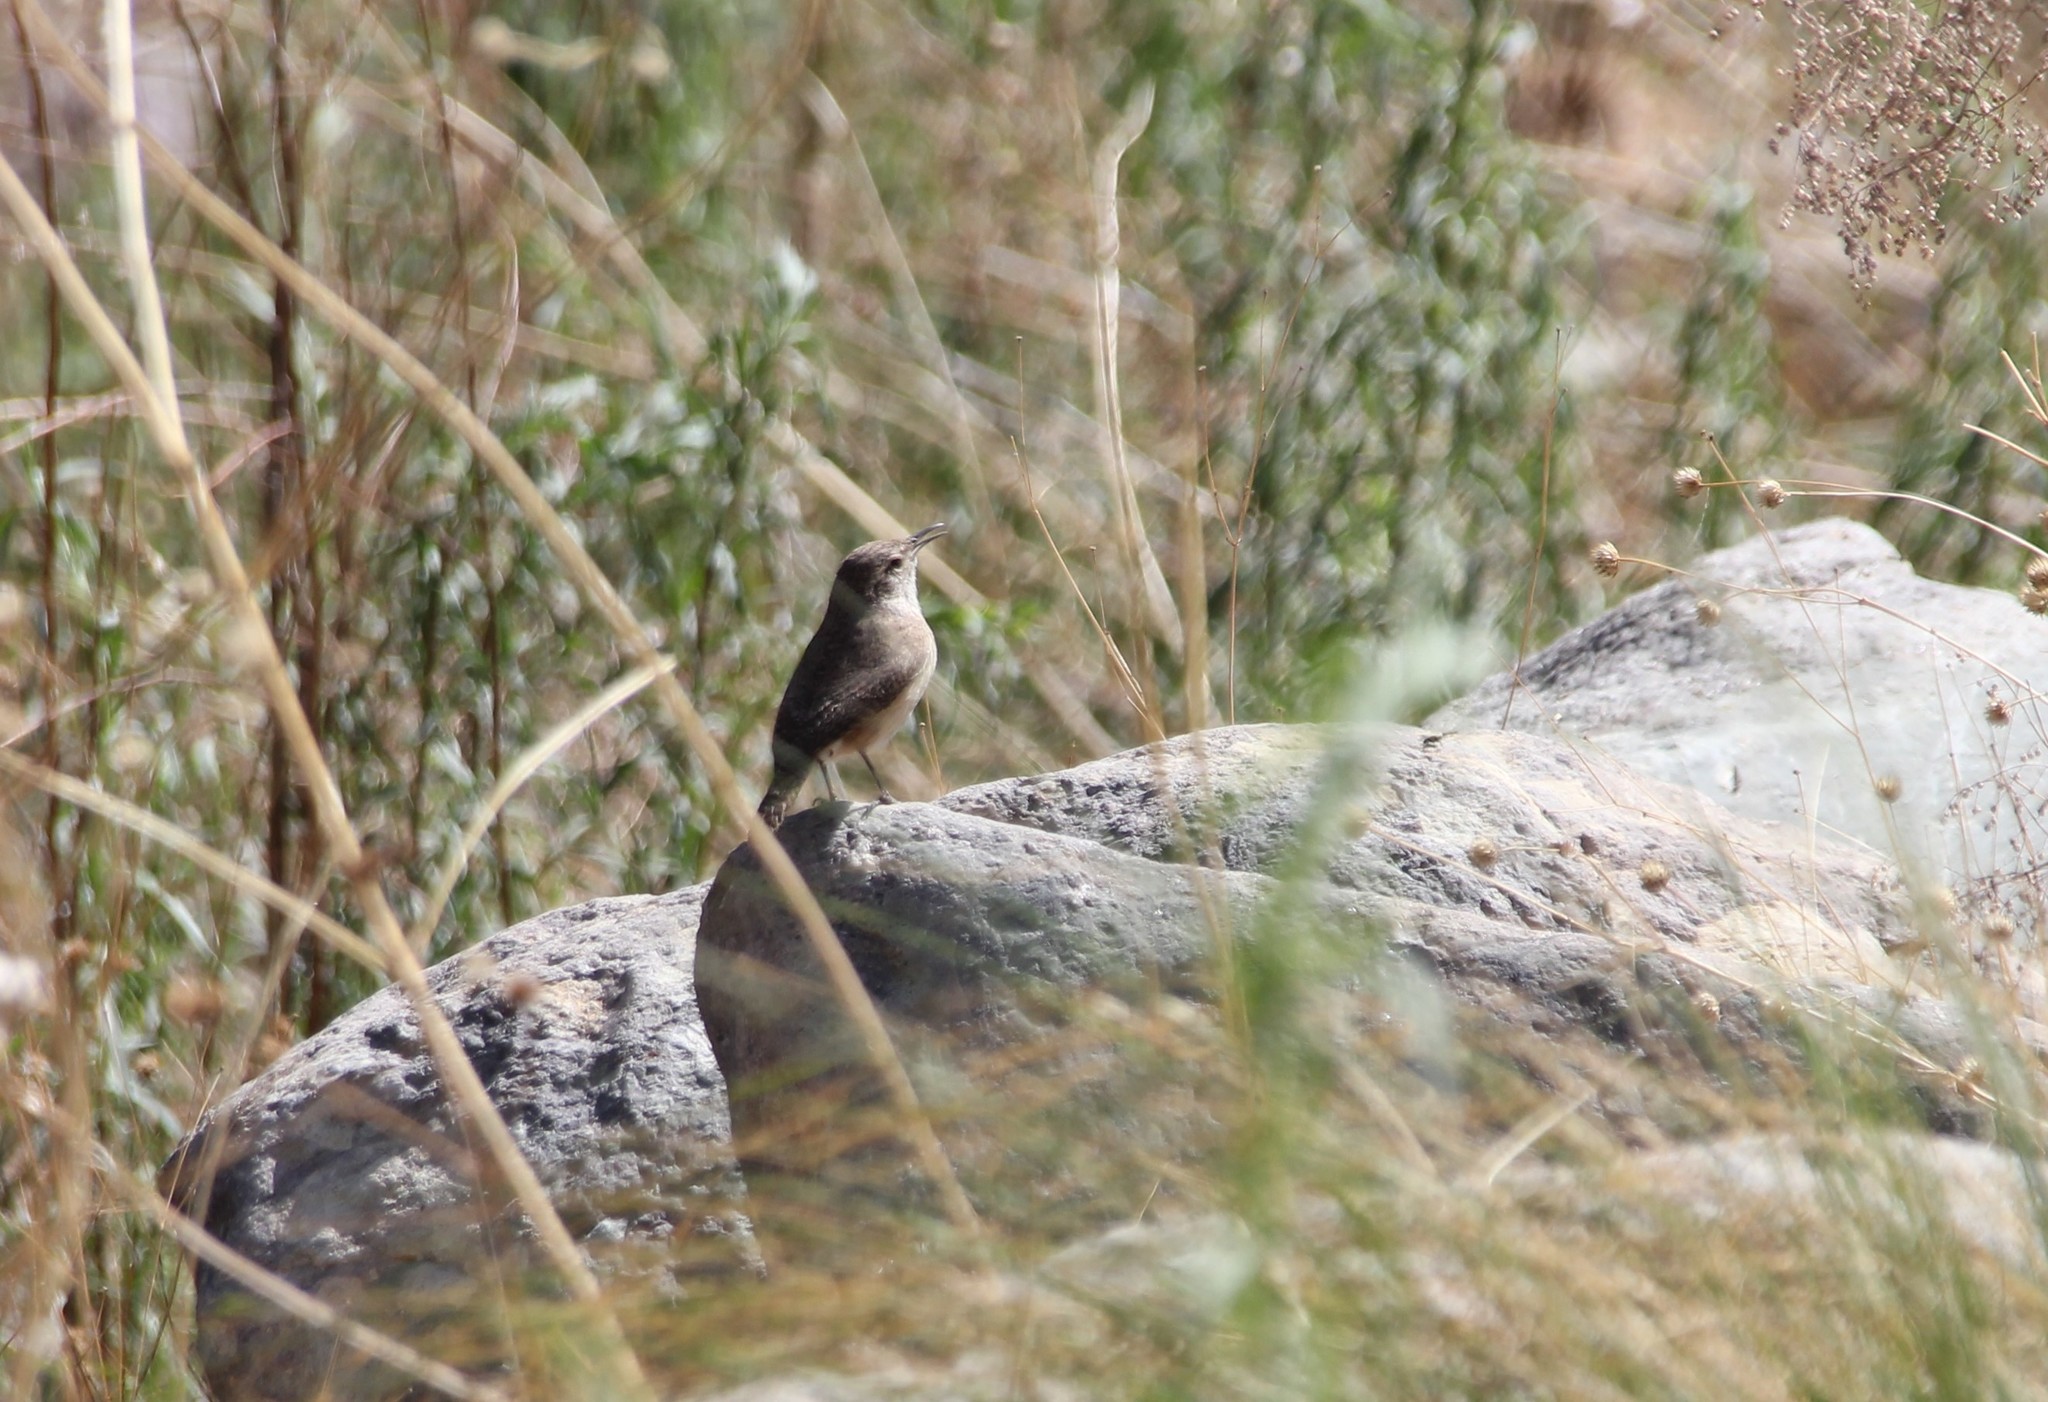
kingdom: Animalia
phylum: Chordata
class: Aves
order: Passeriformes
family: Troglodytidae
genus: Salpinctes
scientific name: Salpinctes obsoletus
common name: Rock wren
